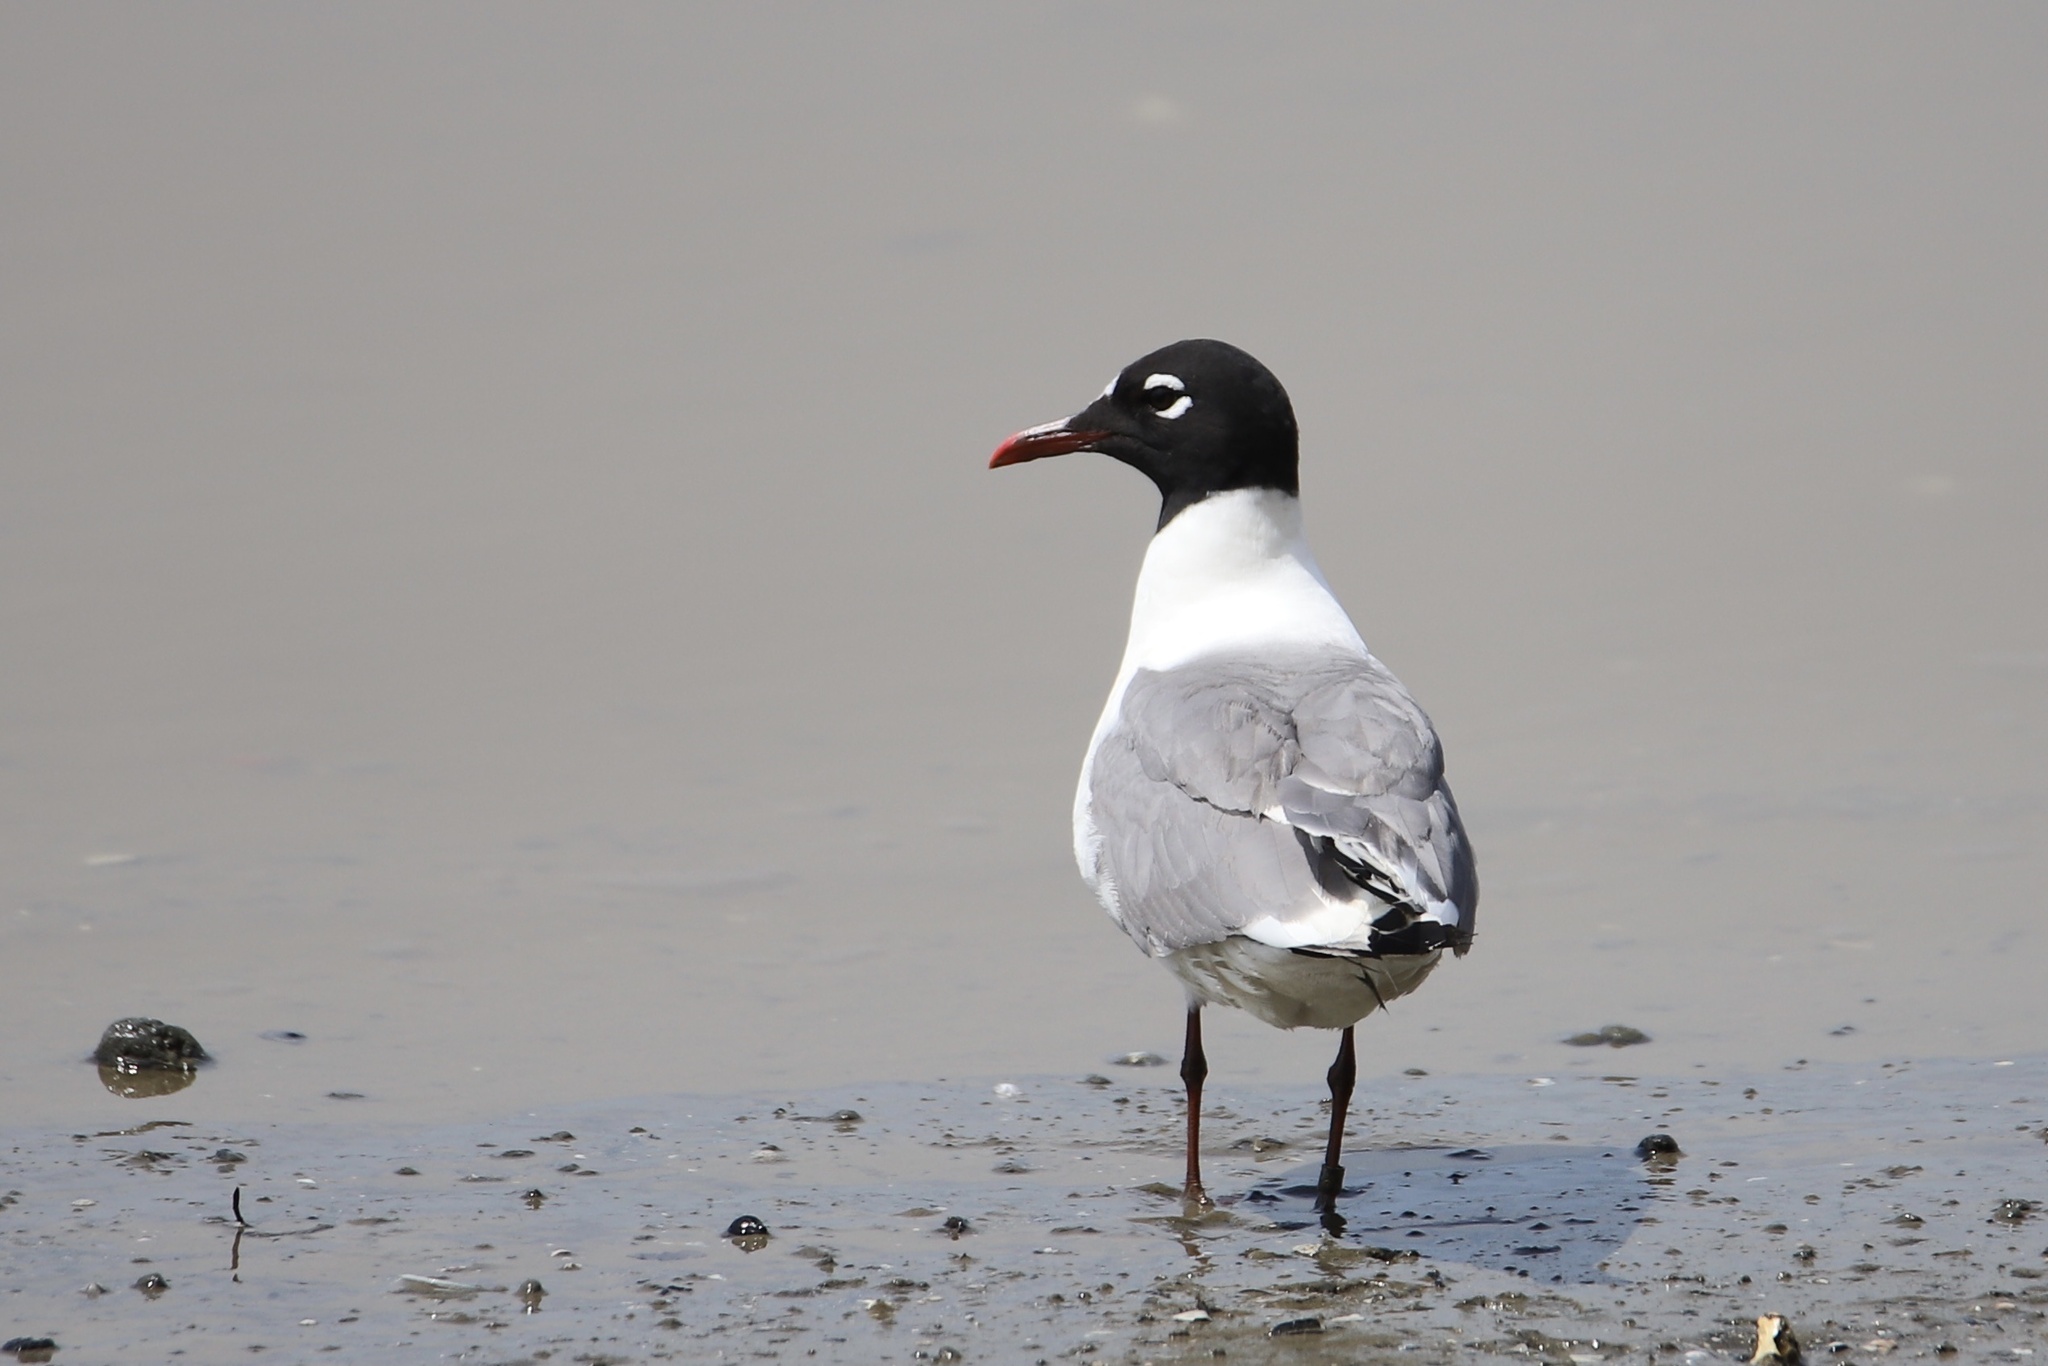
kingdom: Animalia
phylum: Chordata
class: Aves
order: Charadriiformes
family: Laridae
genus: Leucophaeus
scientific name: Leucophaeus pipixcan
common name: Franklin's gull
